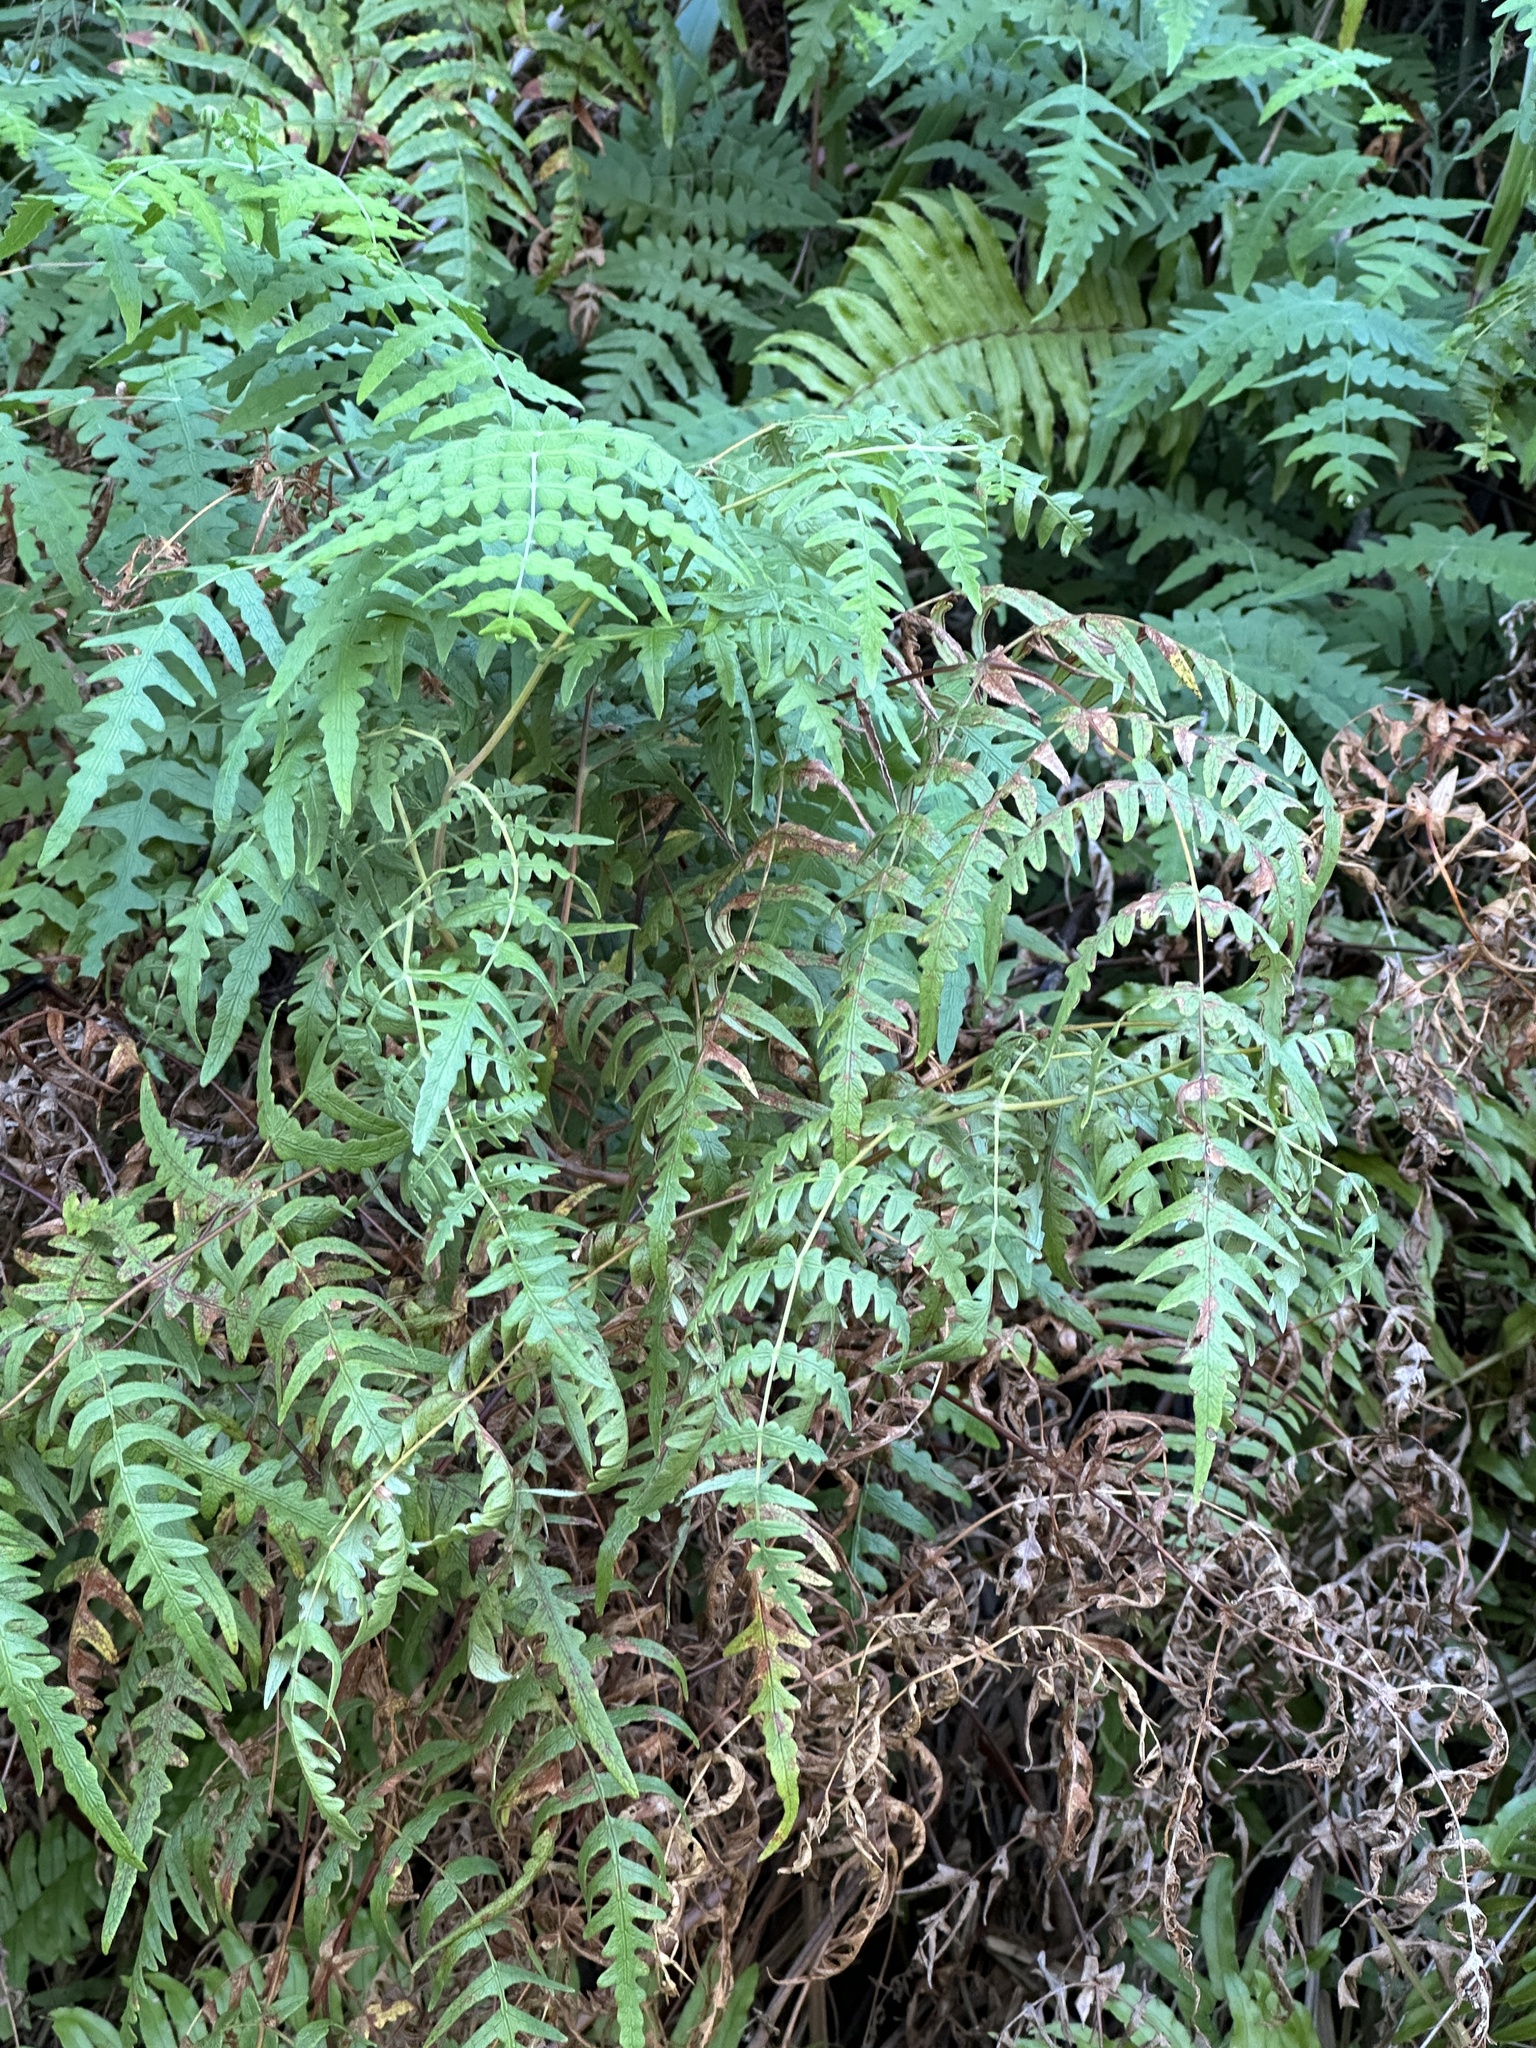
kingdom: Plantae
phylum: Tracheophyta
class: Polypodiopsida
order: Polypodiales
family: Dennstaedtiaceae
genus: Histiopteris
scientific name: Histiopteris incisa
